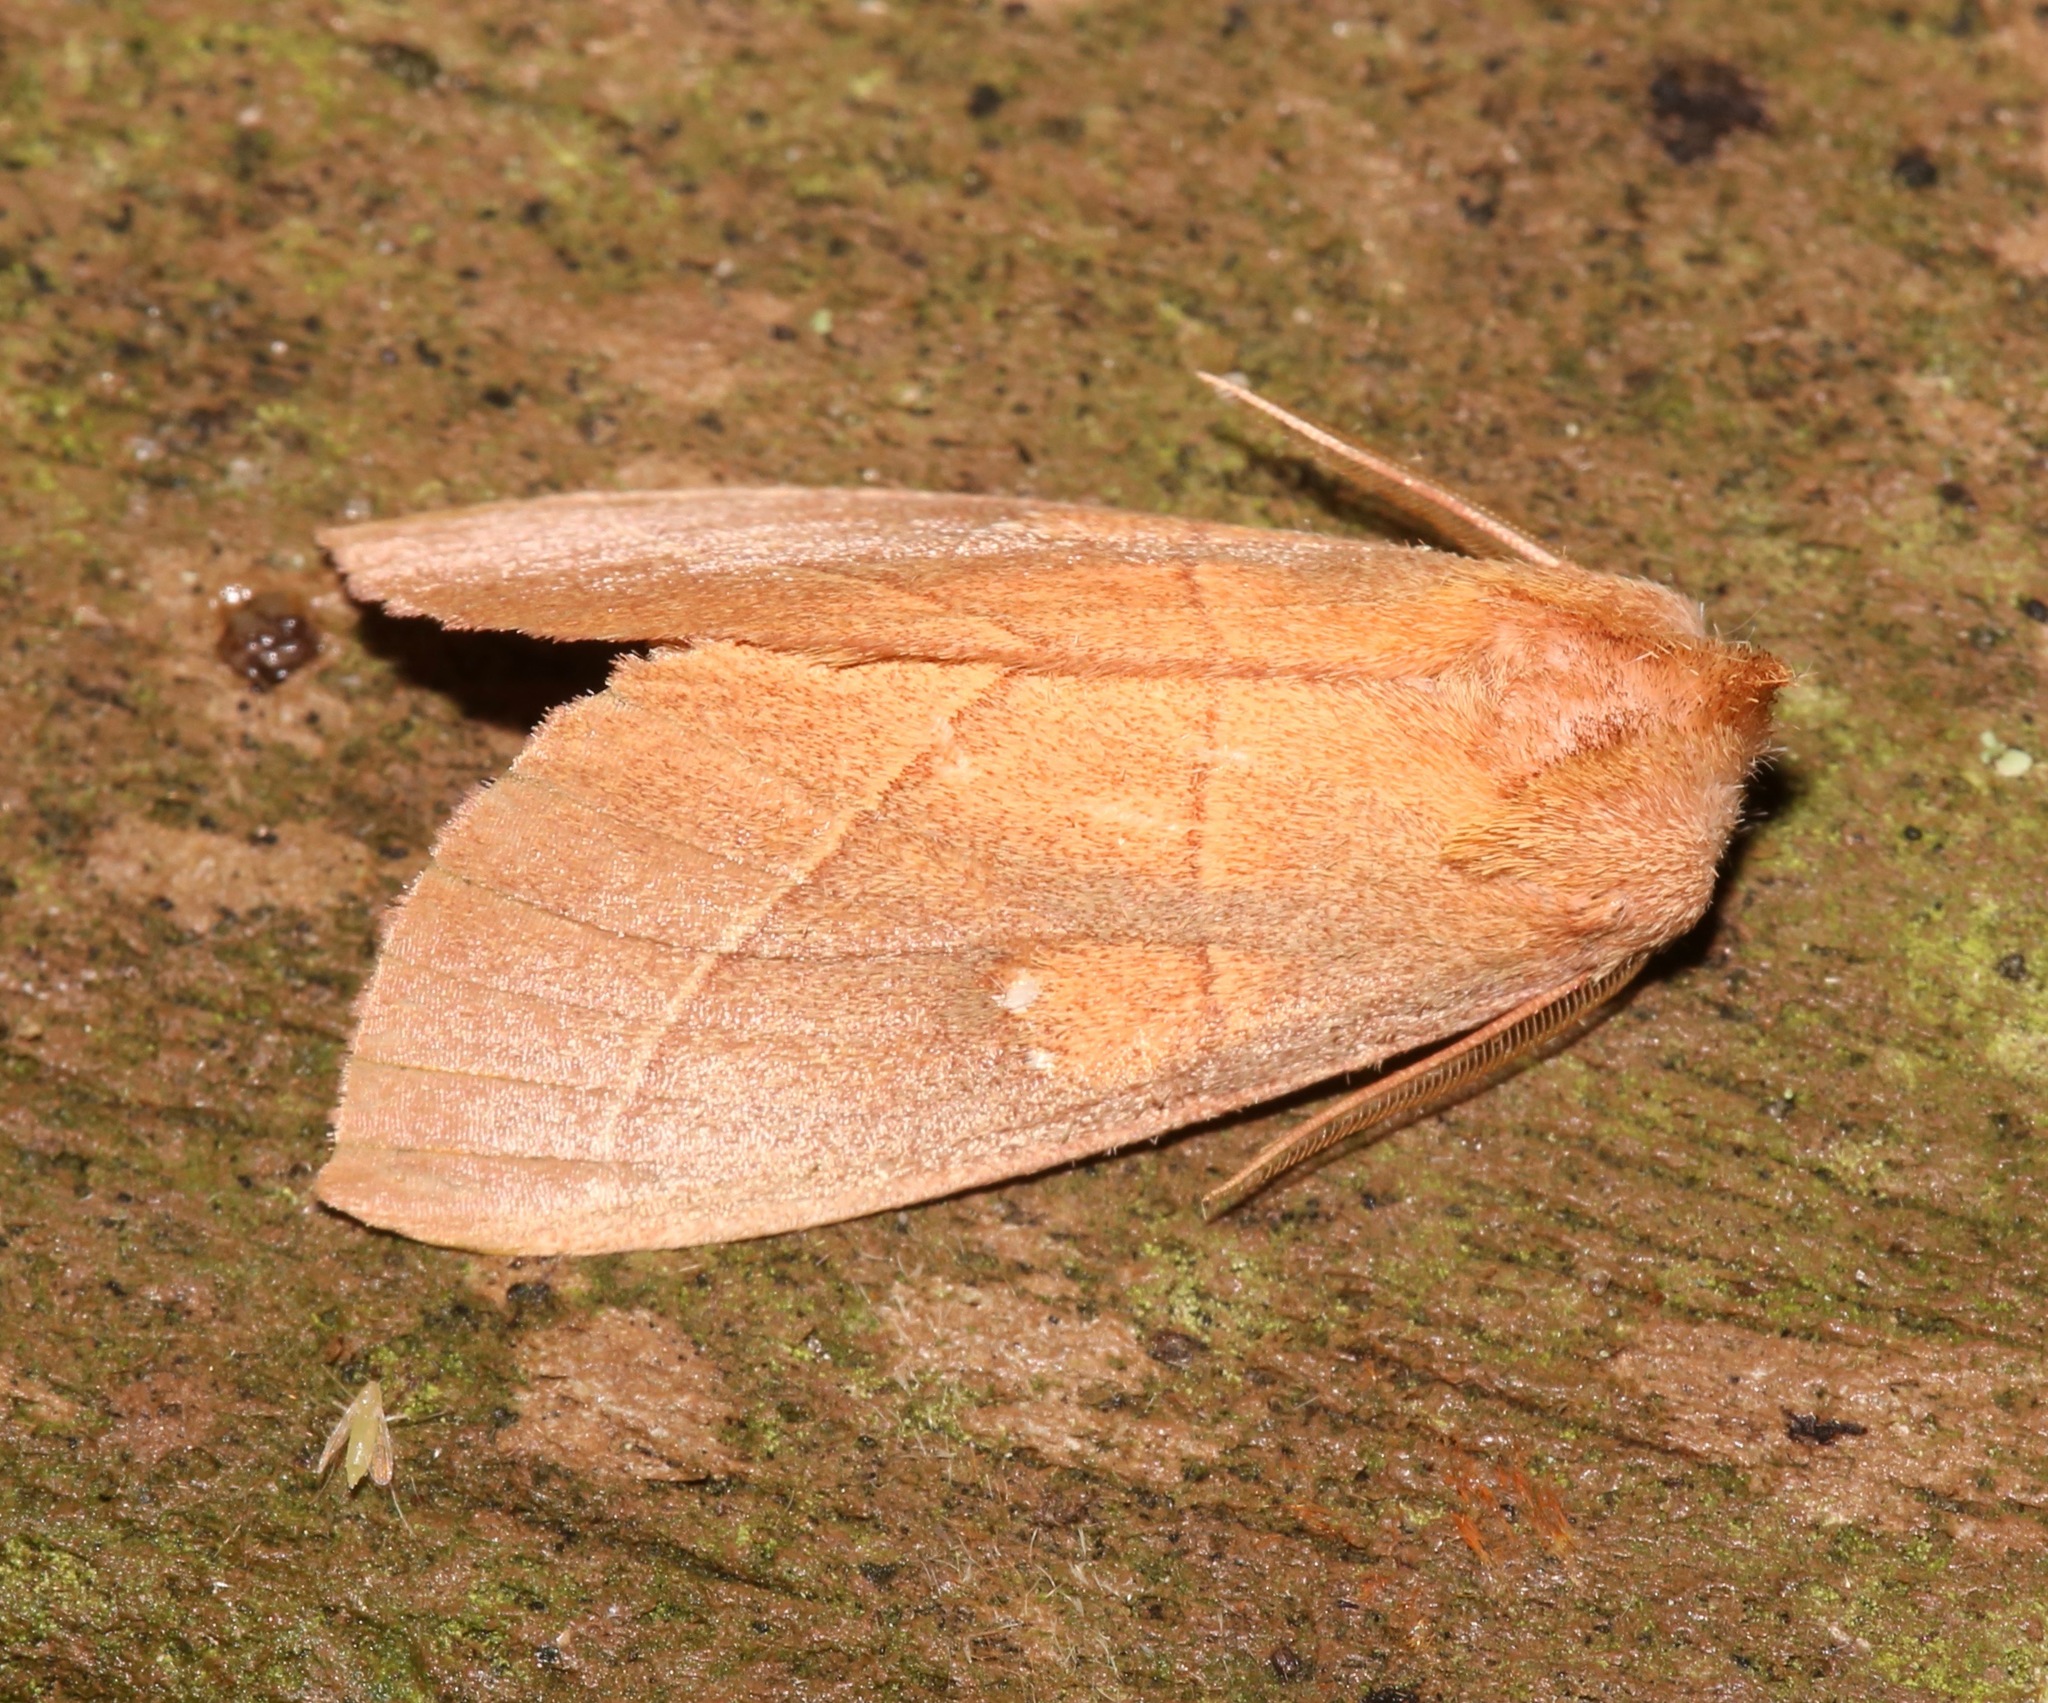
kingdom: Animalia
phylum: Arthropoda
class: Insecta
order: Lepidoptera
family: Notodontidae
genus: Nadata
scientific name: Nadata gibbosa
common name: White-dotted prominent
